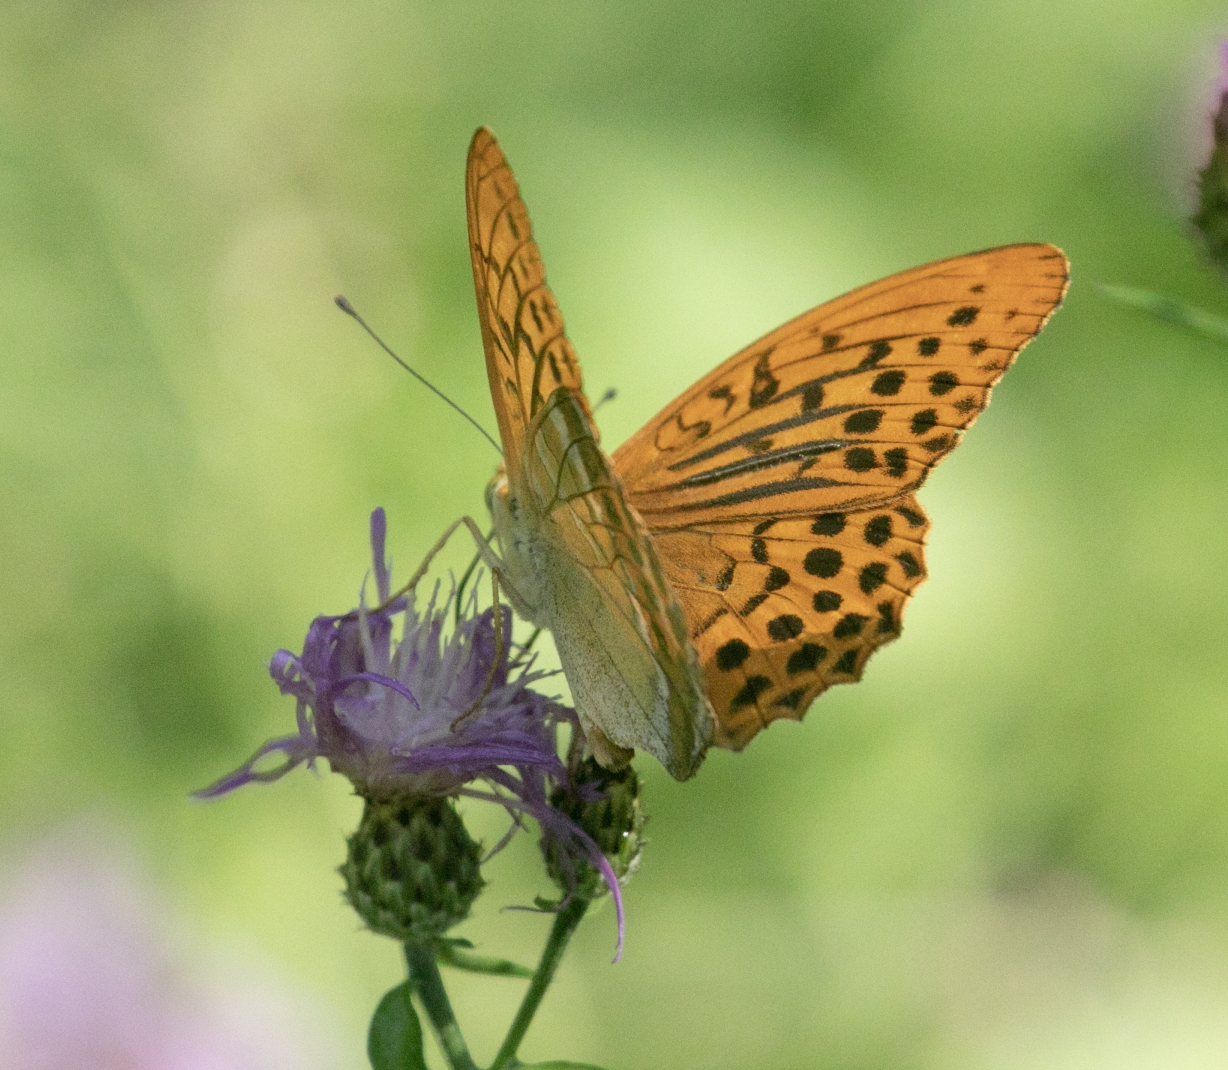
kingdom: Animalia
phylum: Arthropoda
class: Insecta
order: Lepidoptera
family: Nymphalidae
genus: Argynnis
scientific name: Argynnis paphia
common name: Silver-washed fritillary
